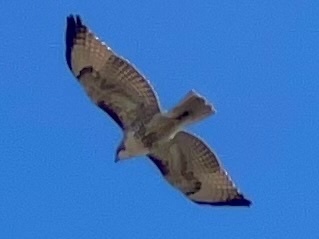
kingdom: Animalia
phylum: Chordata
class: Aves
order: Accipitriformes
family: Accipitridae
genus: Buteo
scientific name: Buteo jamaicensis
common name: Red-tailed hawk
